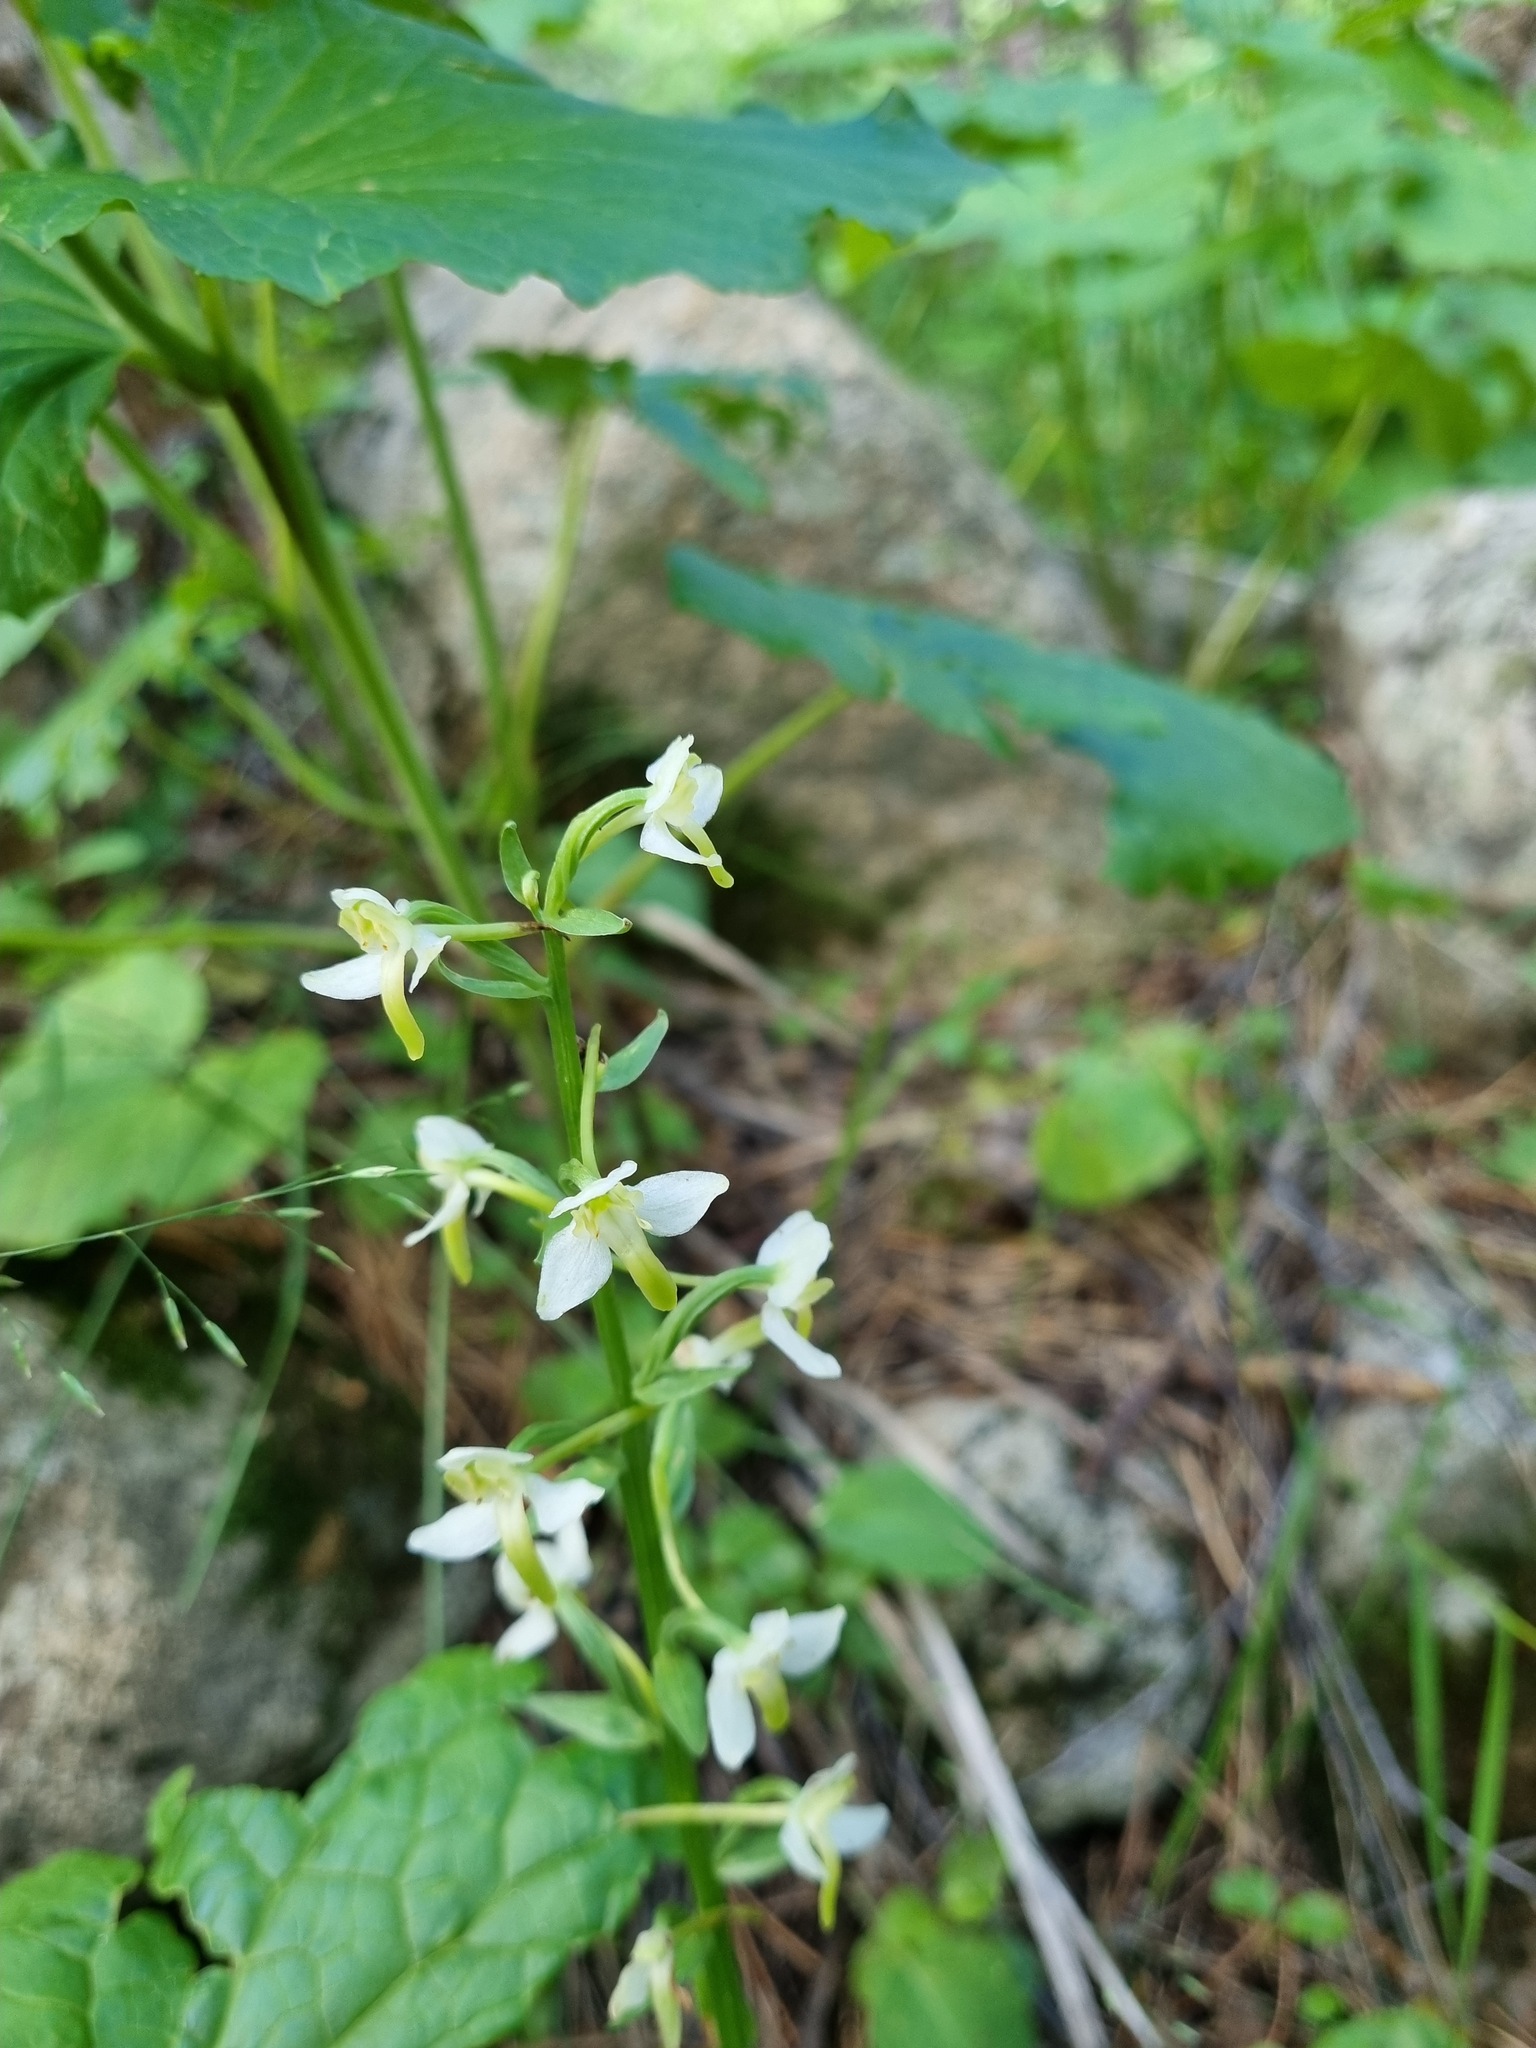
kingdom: Plantae
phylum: Tracheophyta
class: Liliopsida
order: Asparagales
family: Orchidaceae
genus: Platanthera
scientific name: Platanthera chlorantha
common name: Greater butterfly-orchid
